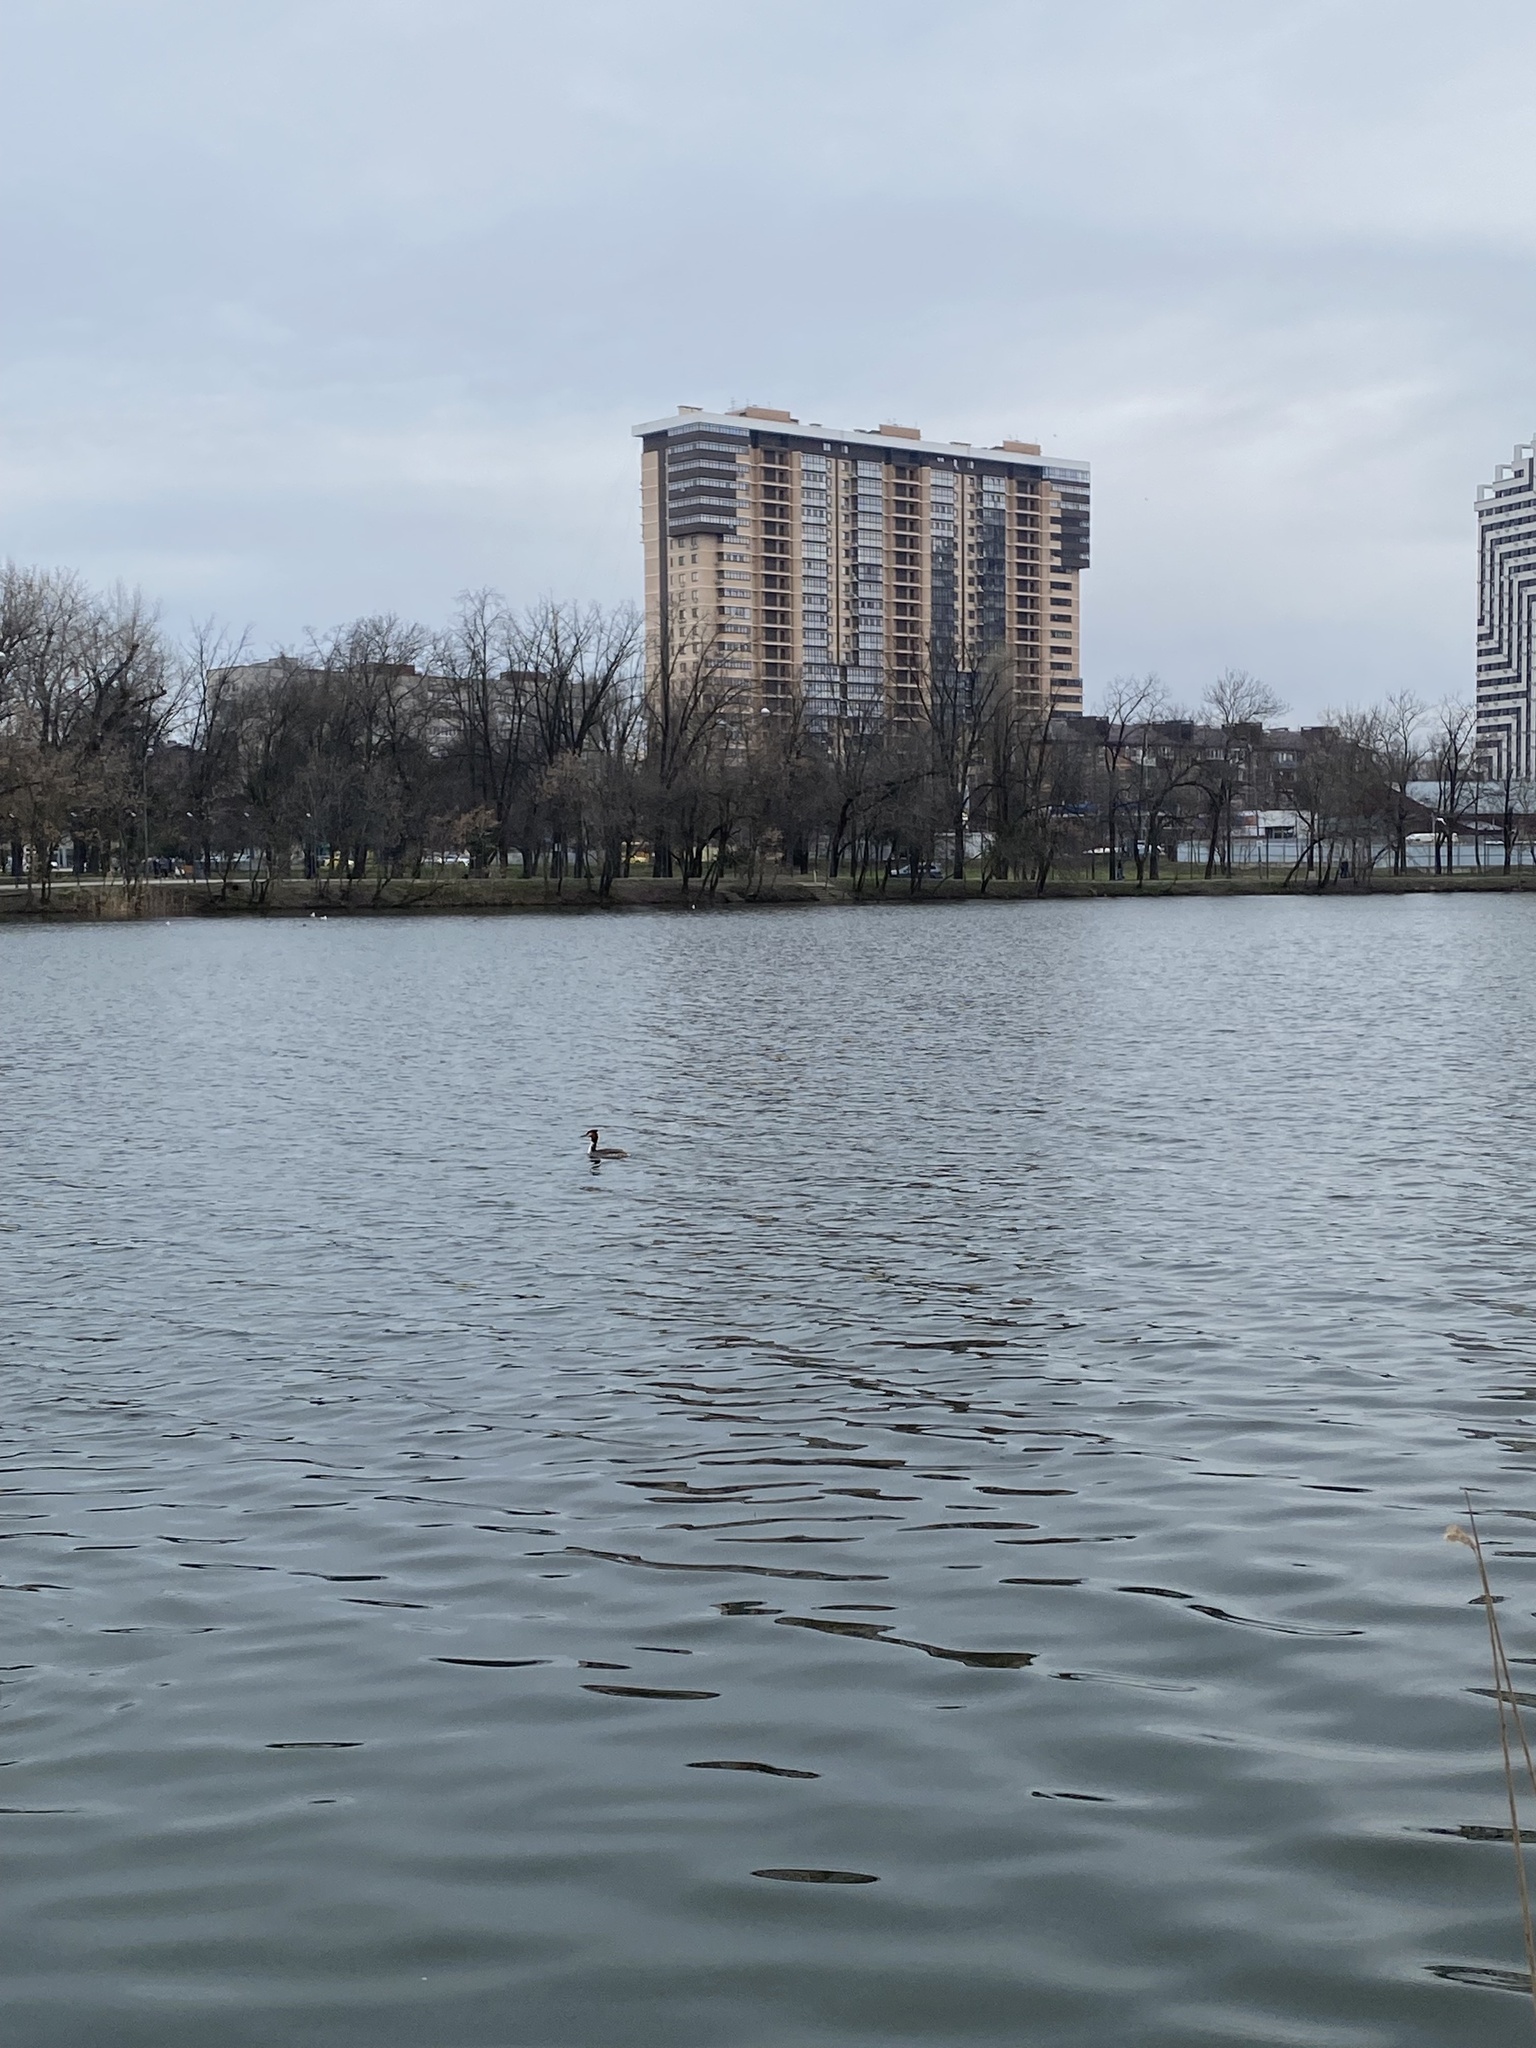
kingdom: Animalia
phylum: Chordata
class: Aves
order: Podicipediformes
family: Podicipedidae
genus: Podiceps
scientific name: Podiceps cristatus
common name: Great crested grebe
